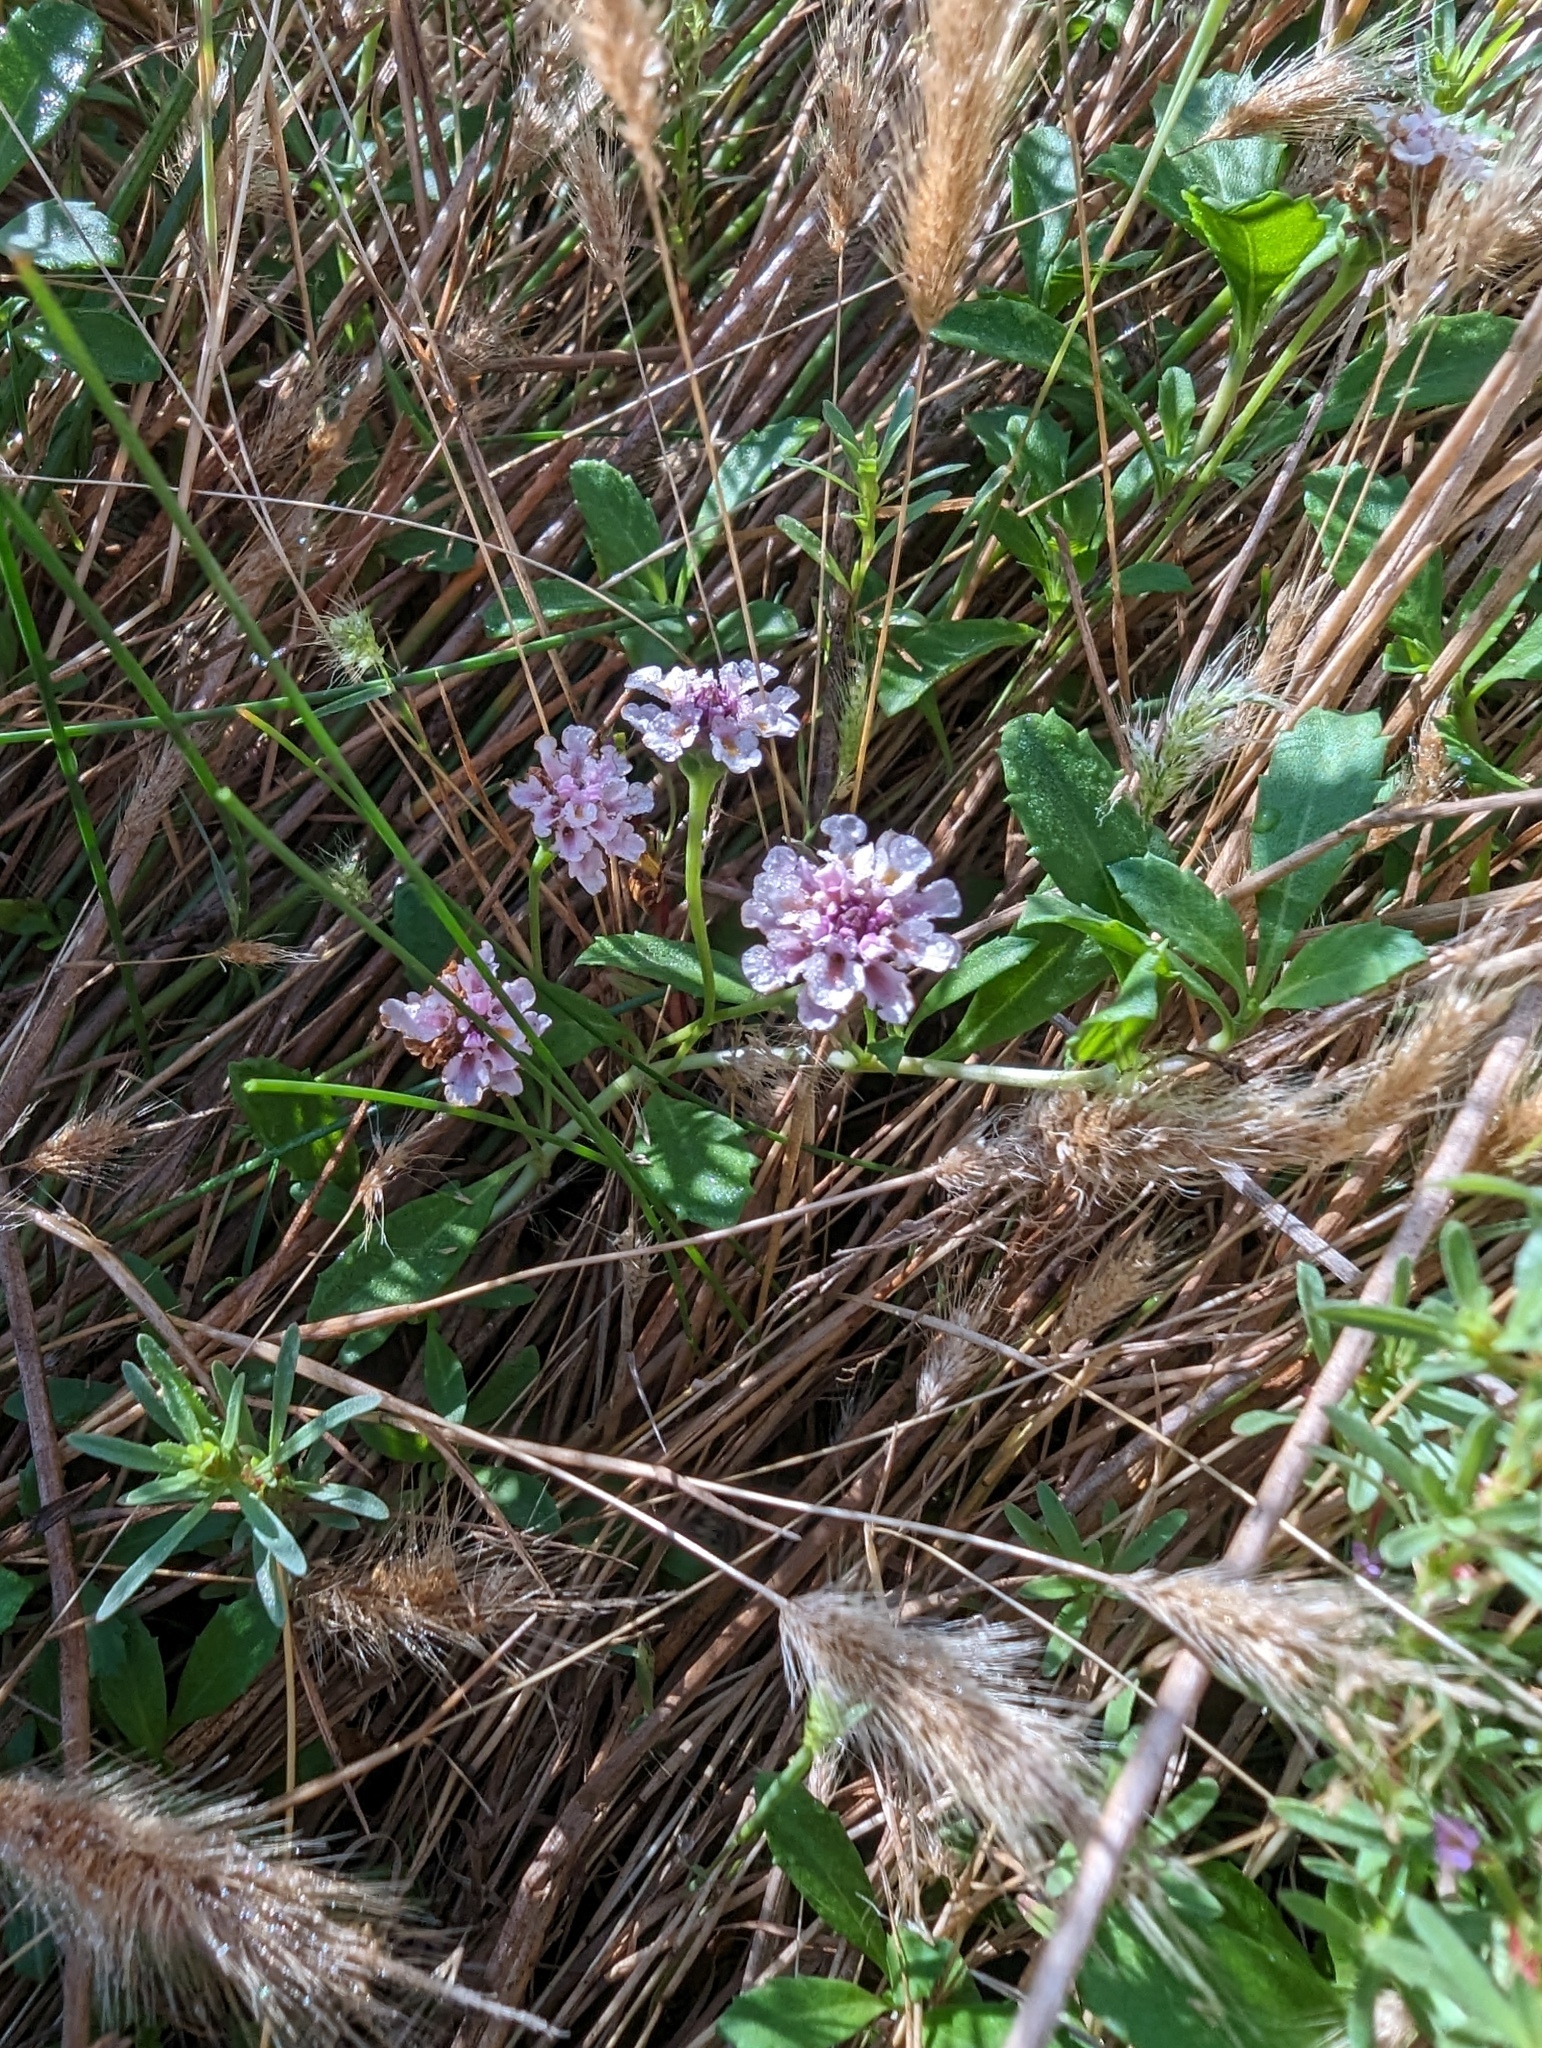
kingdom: Plantae
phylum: Tracheophyta
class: Magnoliopsida
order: Lamiales
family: Verbenaceae
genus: Phyla
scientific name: Phyla nodiflora
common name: Frogfruit
